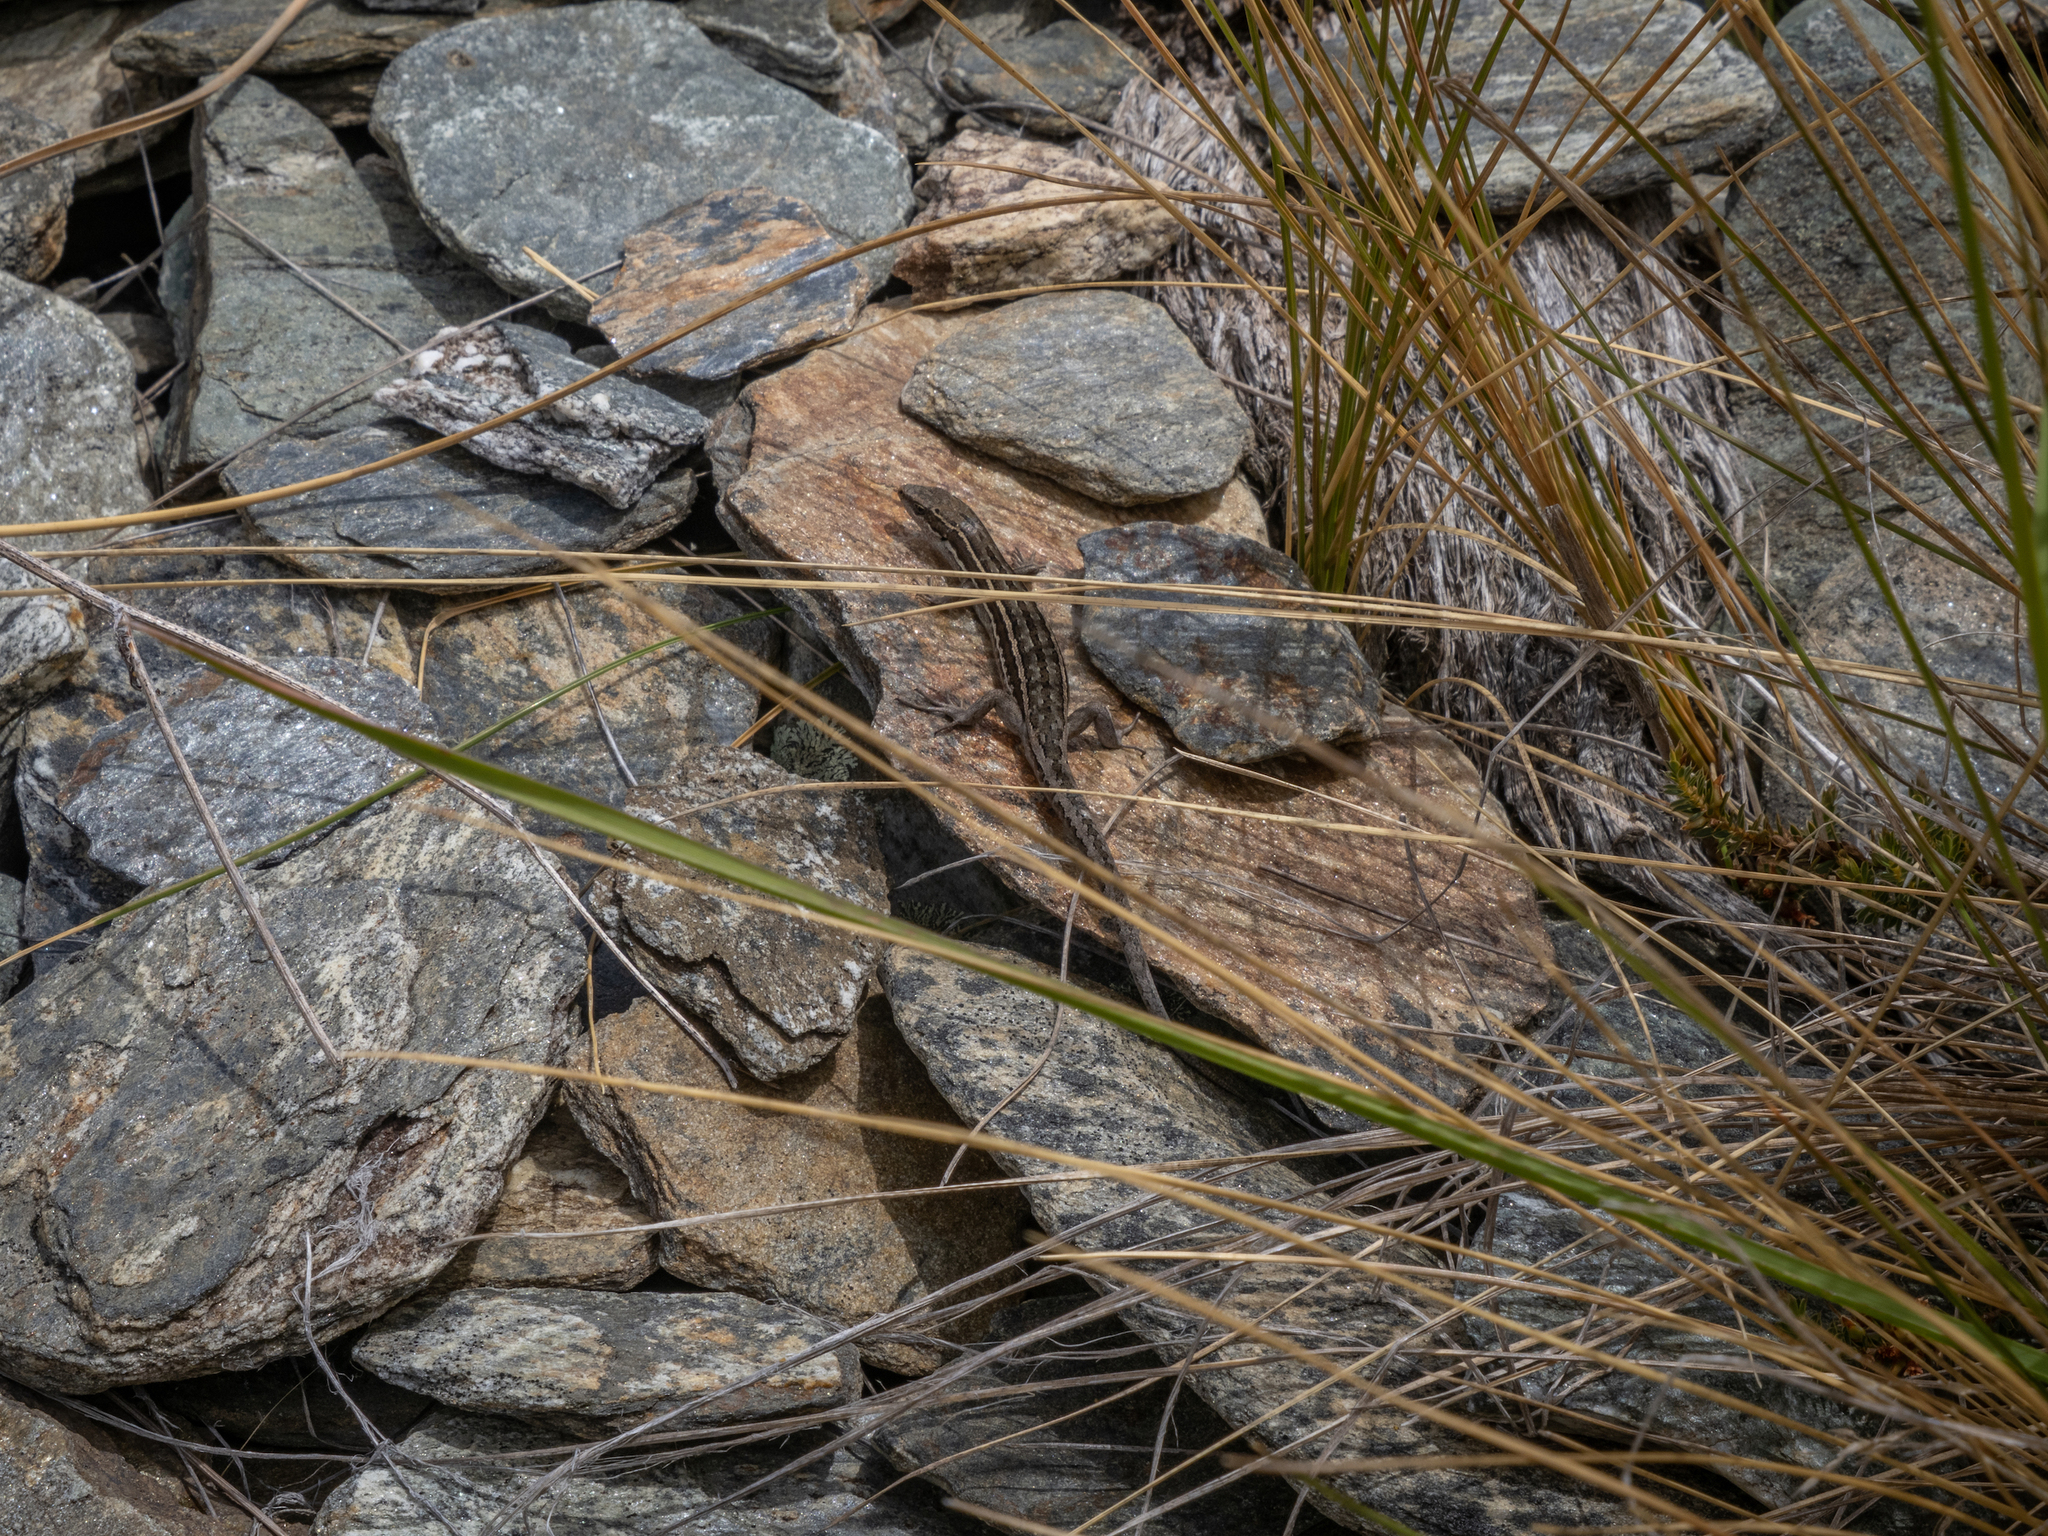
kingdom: Animalia
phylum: Chordata
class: Squamata
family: Scincidae
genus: Oligosoma
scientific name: Oligosoma maccanni
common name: Mccann’s skink
